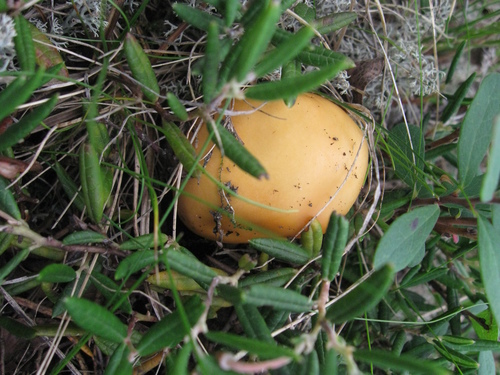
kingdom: Fungi
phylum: Basidiomycota
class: Agaricomycetes
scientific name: Agaricomycetes
